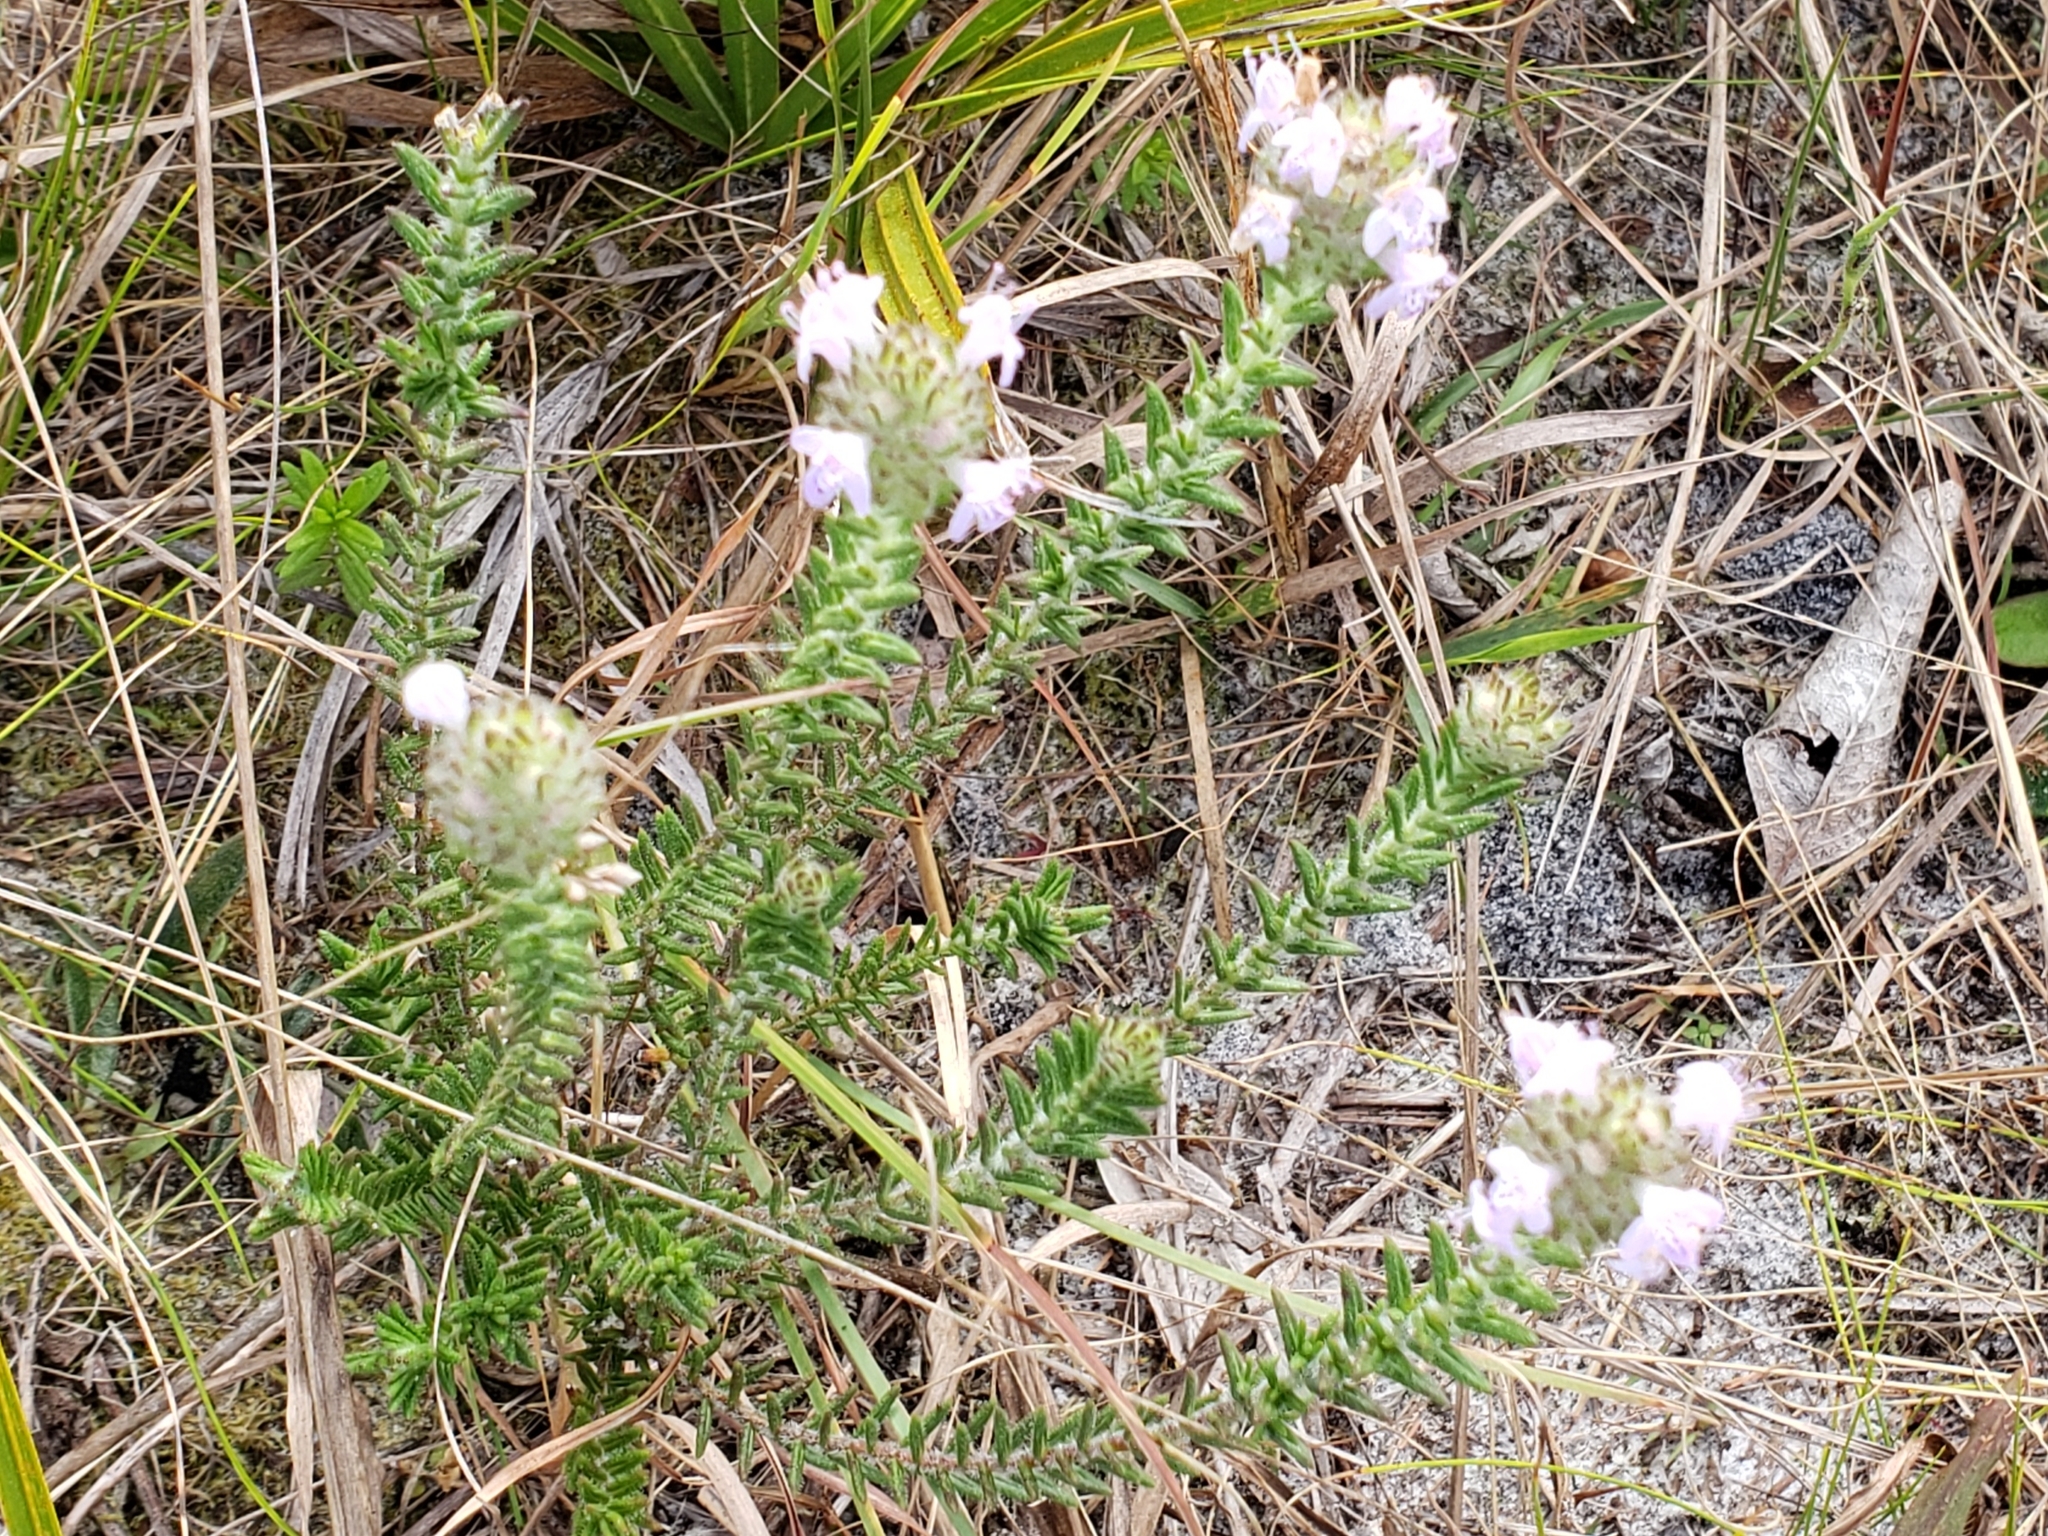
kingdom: Plantae
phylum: Tracheophyta
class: Magnoliopsida
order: Lamiales
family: Lamiaceae
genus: Piloblephis
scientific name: Piloblephis rigida
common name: Wild pennyroyal
